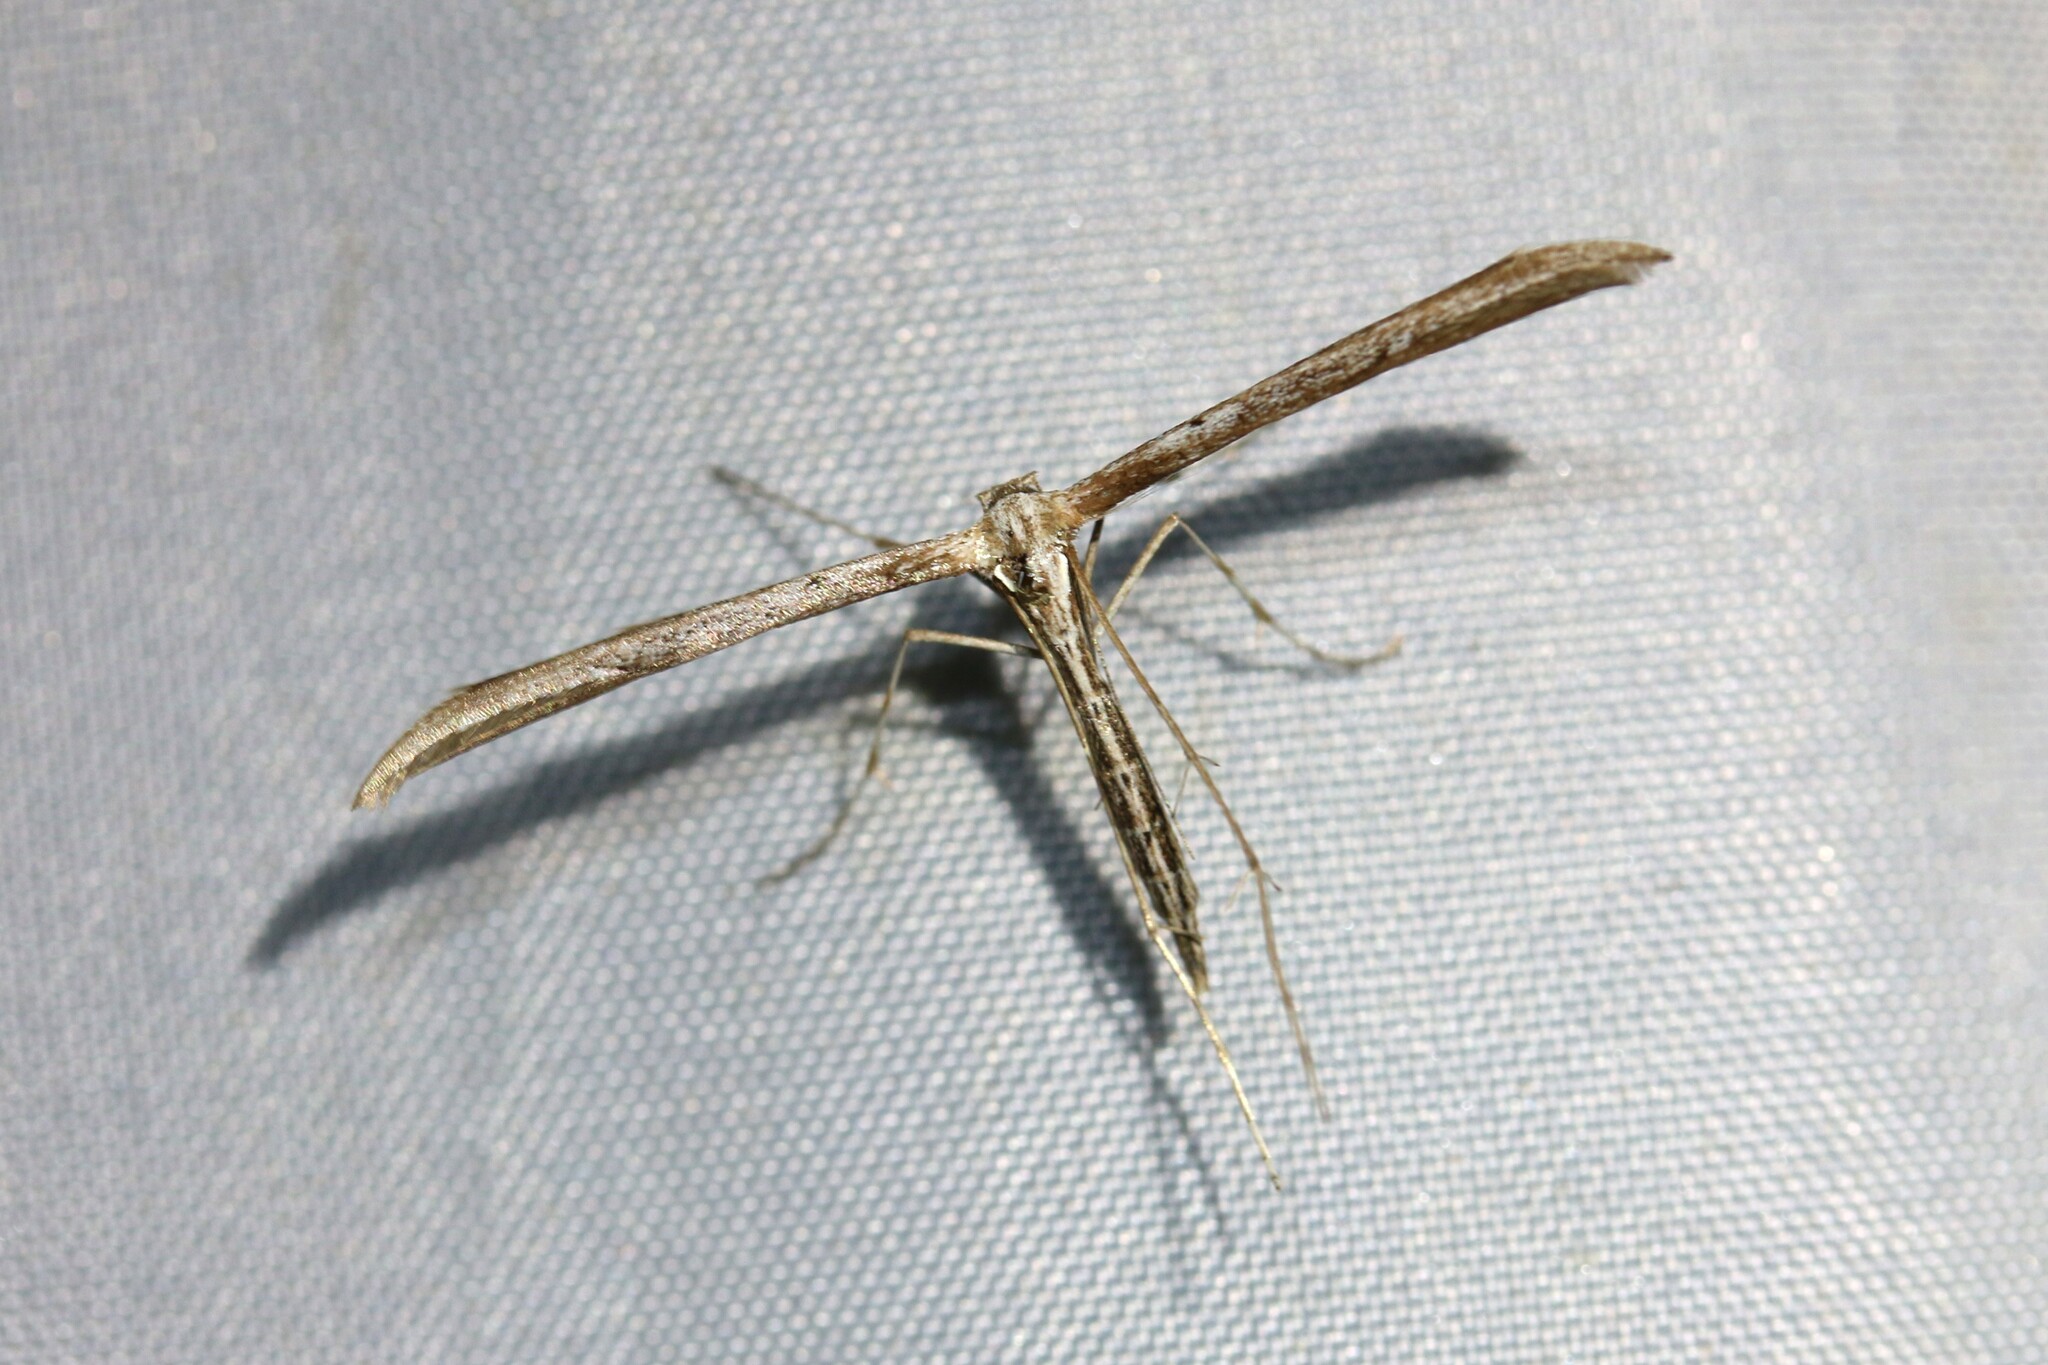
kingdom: Animalia
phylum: Arthropoda
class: Insecta
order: Lepidoptera
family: Pterophoridae
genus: Emmelina
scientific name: Emmelina monodactyla
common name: Common plume
